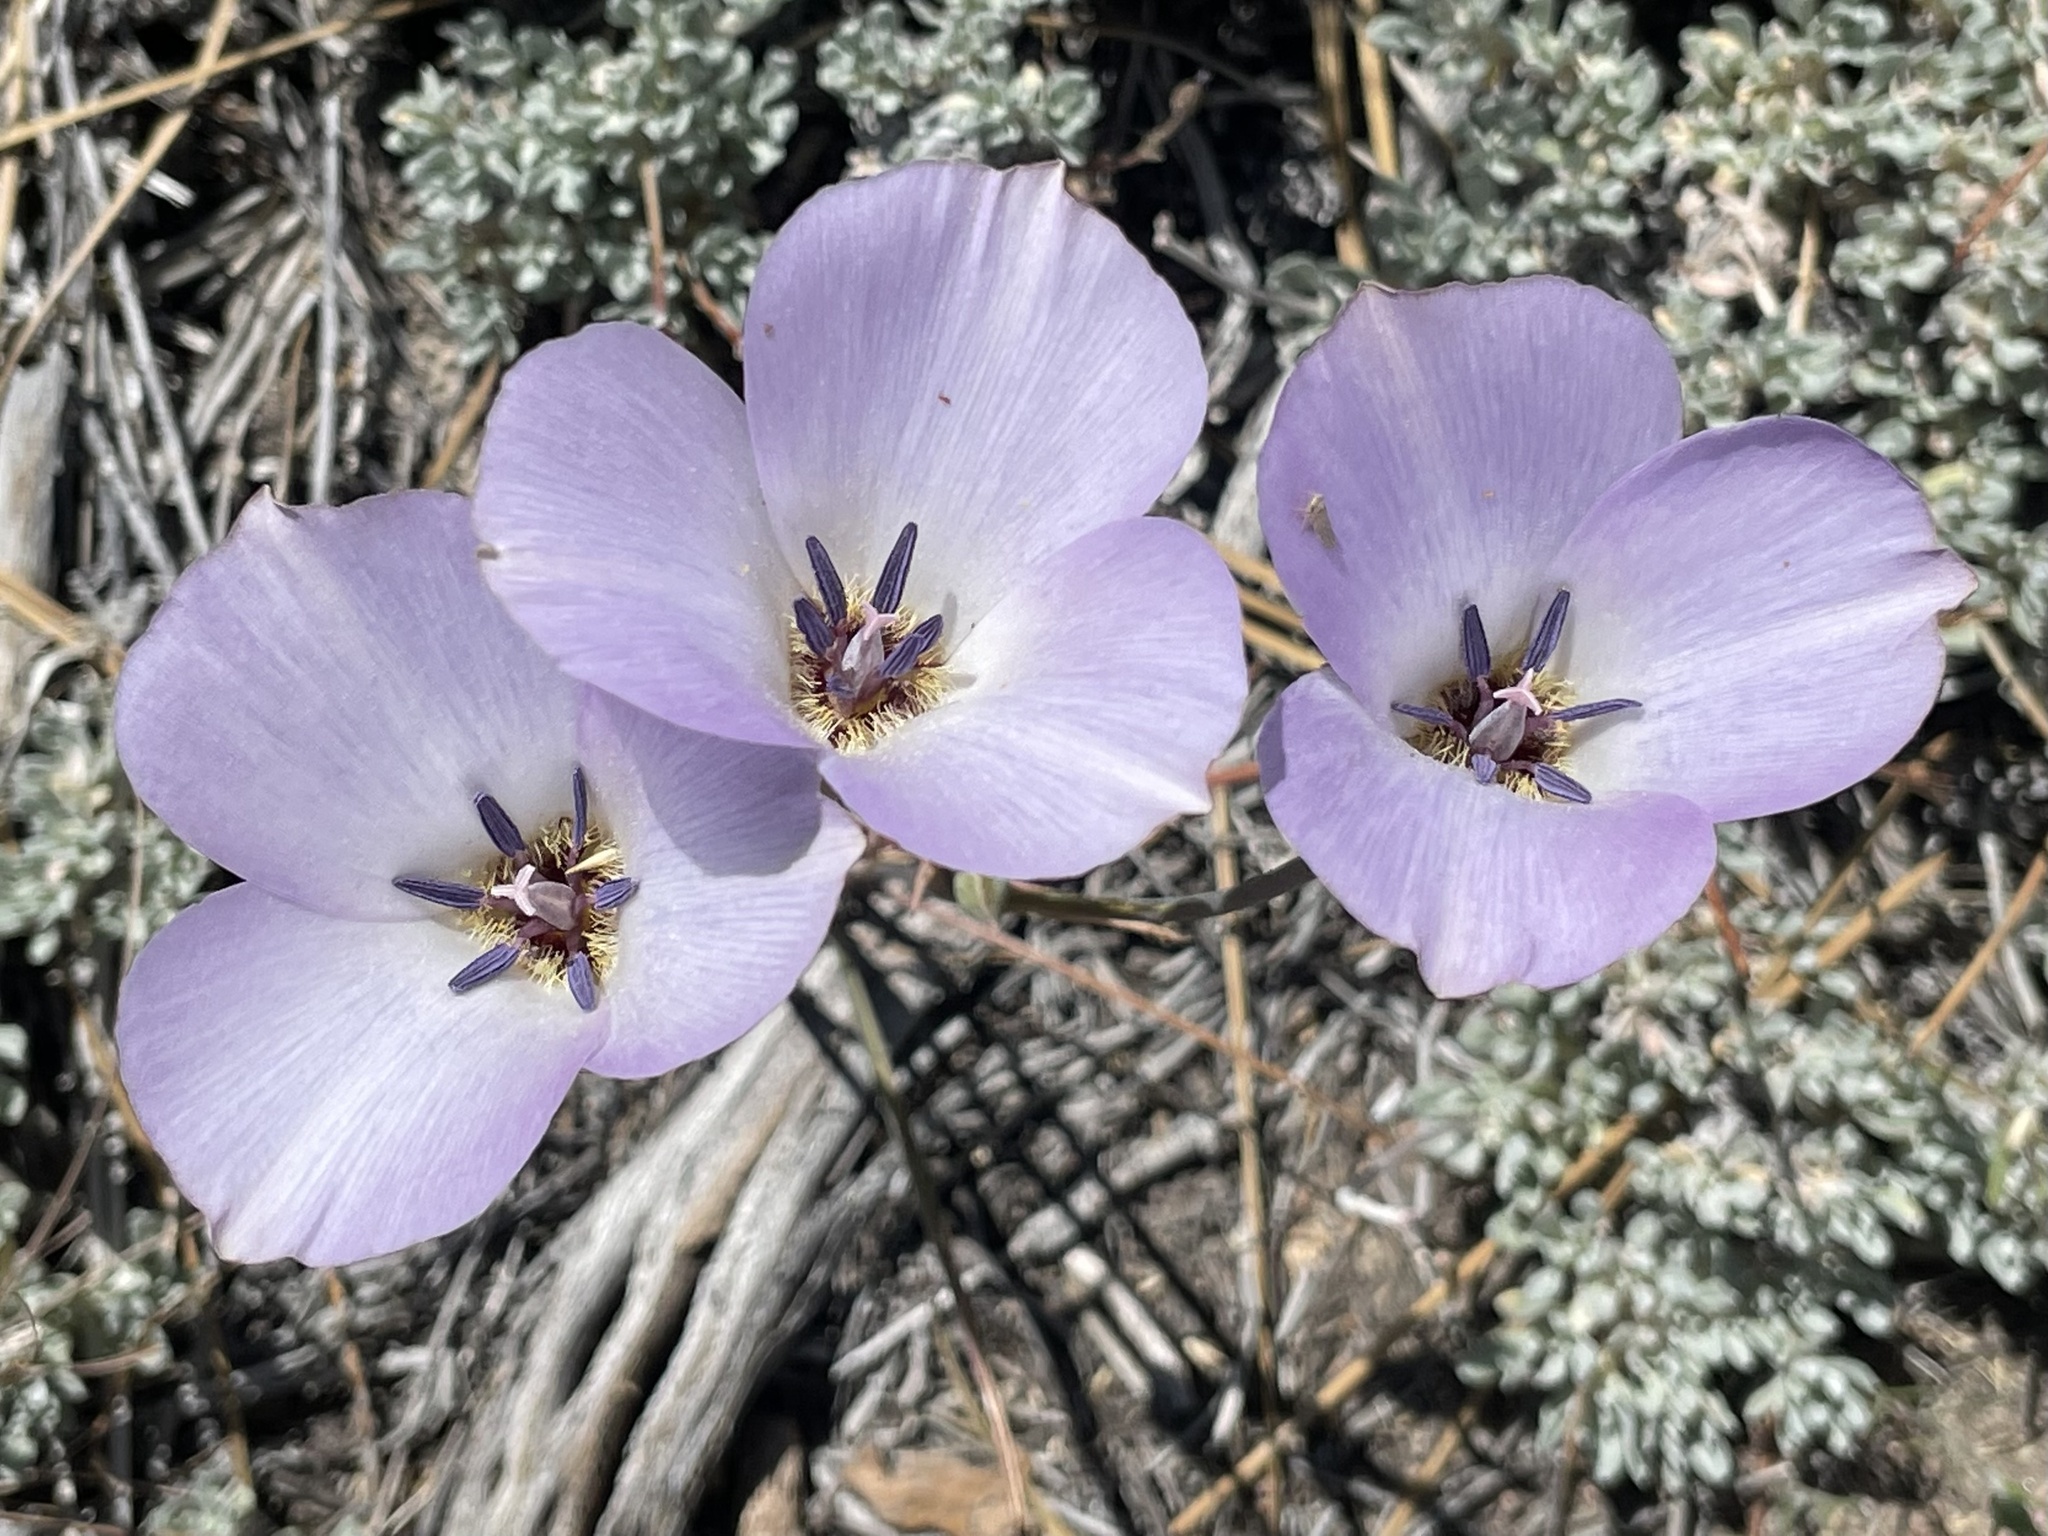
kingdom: Plantae
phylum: Tracheophyta
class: Liliopsida
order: Liliales
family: Liliaceae
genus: Calochortus
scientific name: Calochortus invenustus
